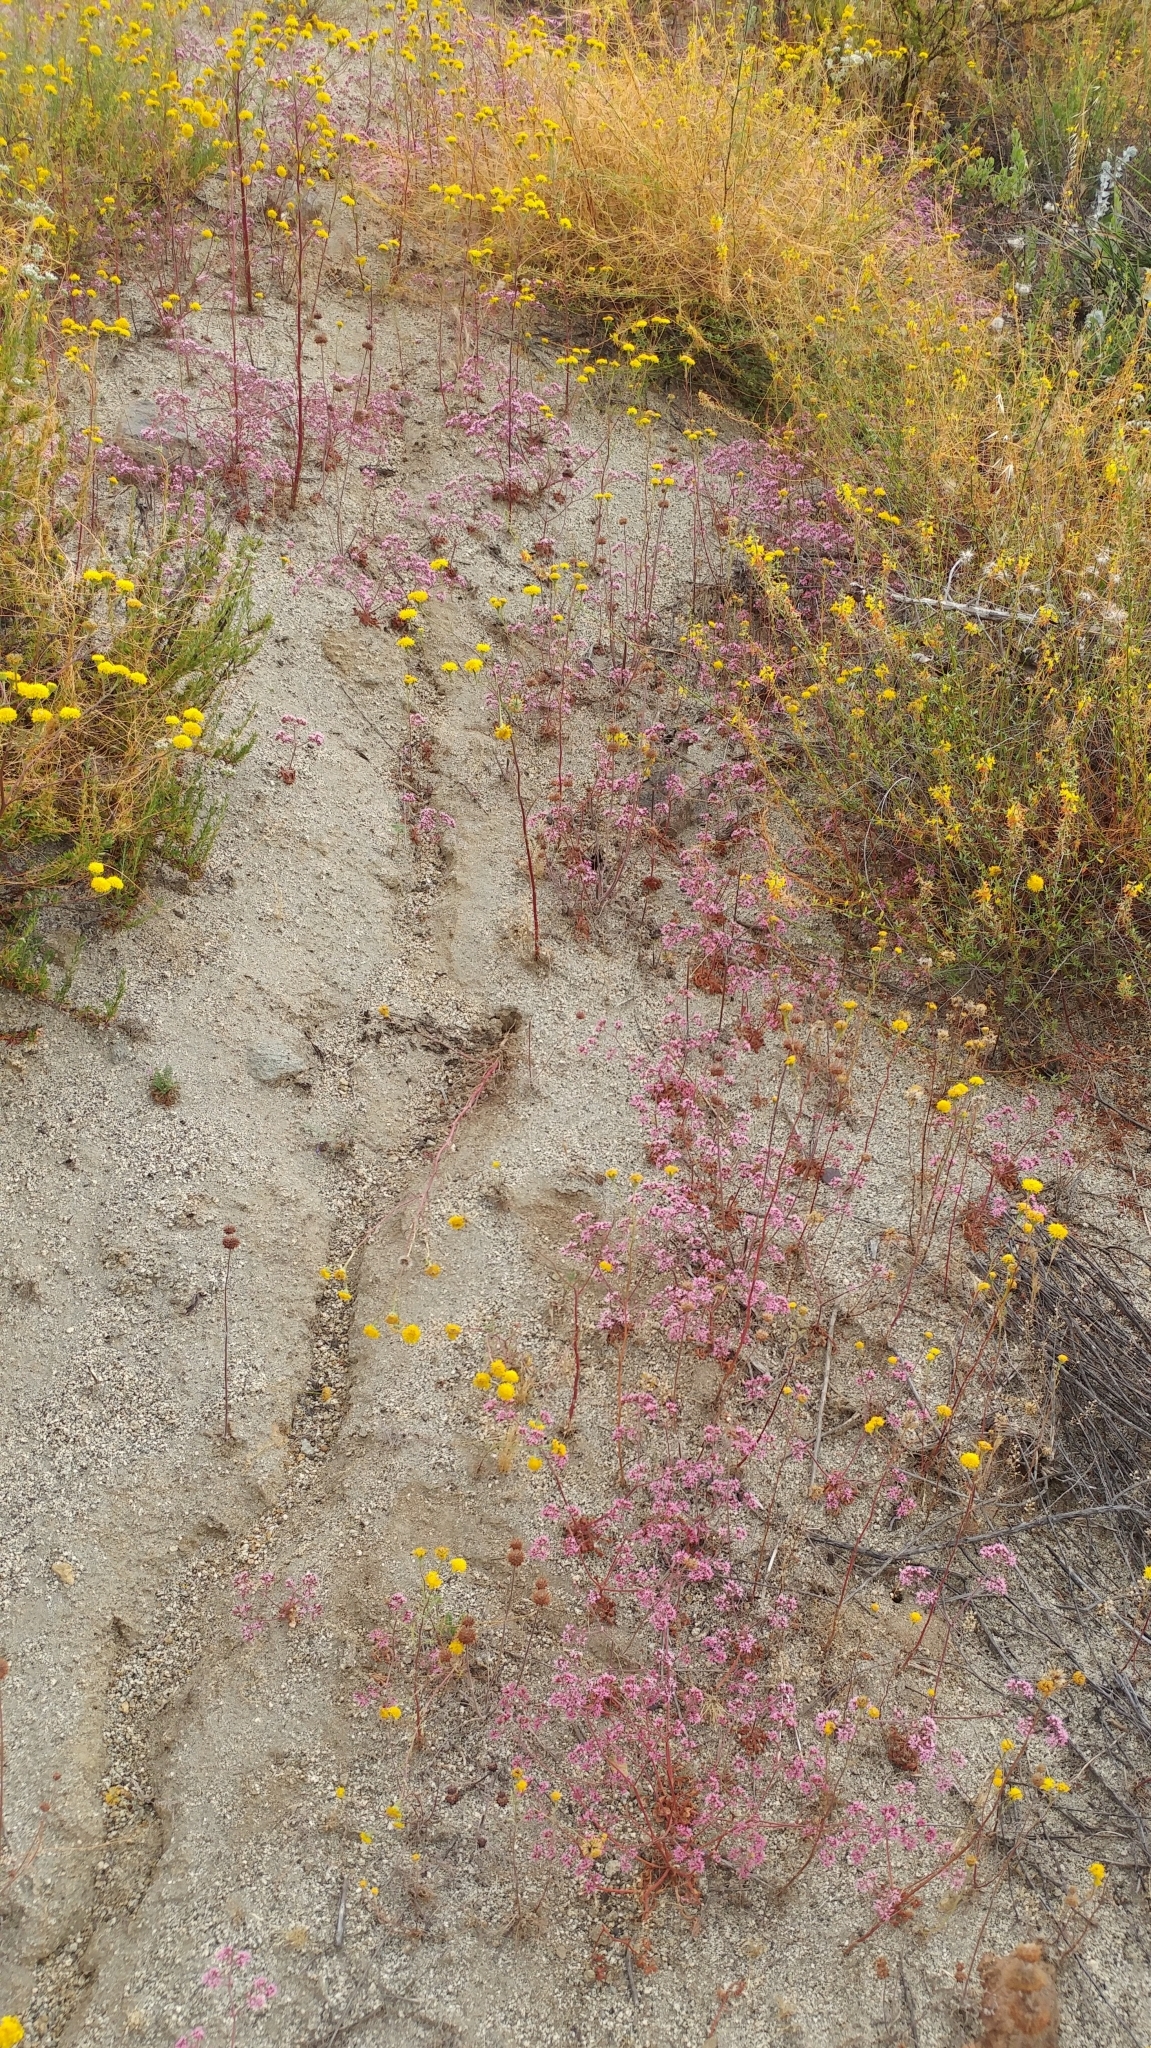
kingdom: Plantae
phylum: Tracheophyta
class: Magnoliopsida
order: Caryophyllales
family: Polygonaceae
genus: Chorizanthe
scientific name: Chorizanthe fimbriata
